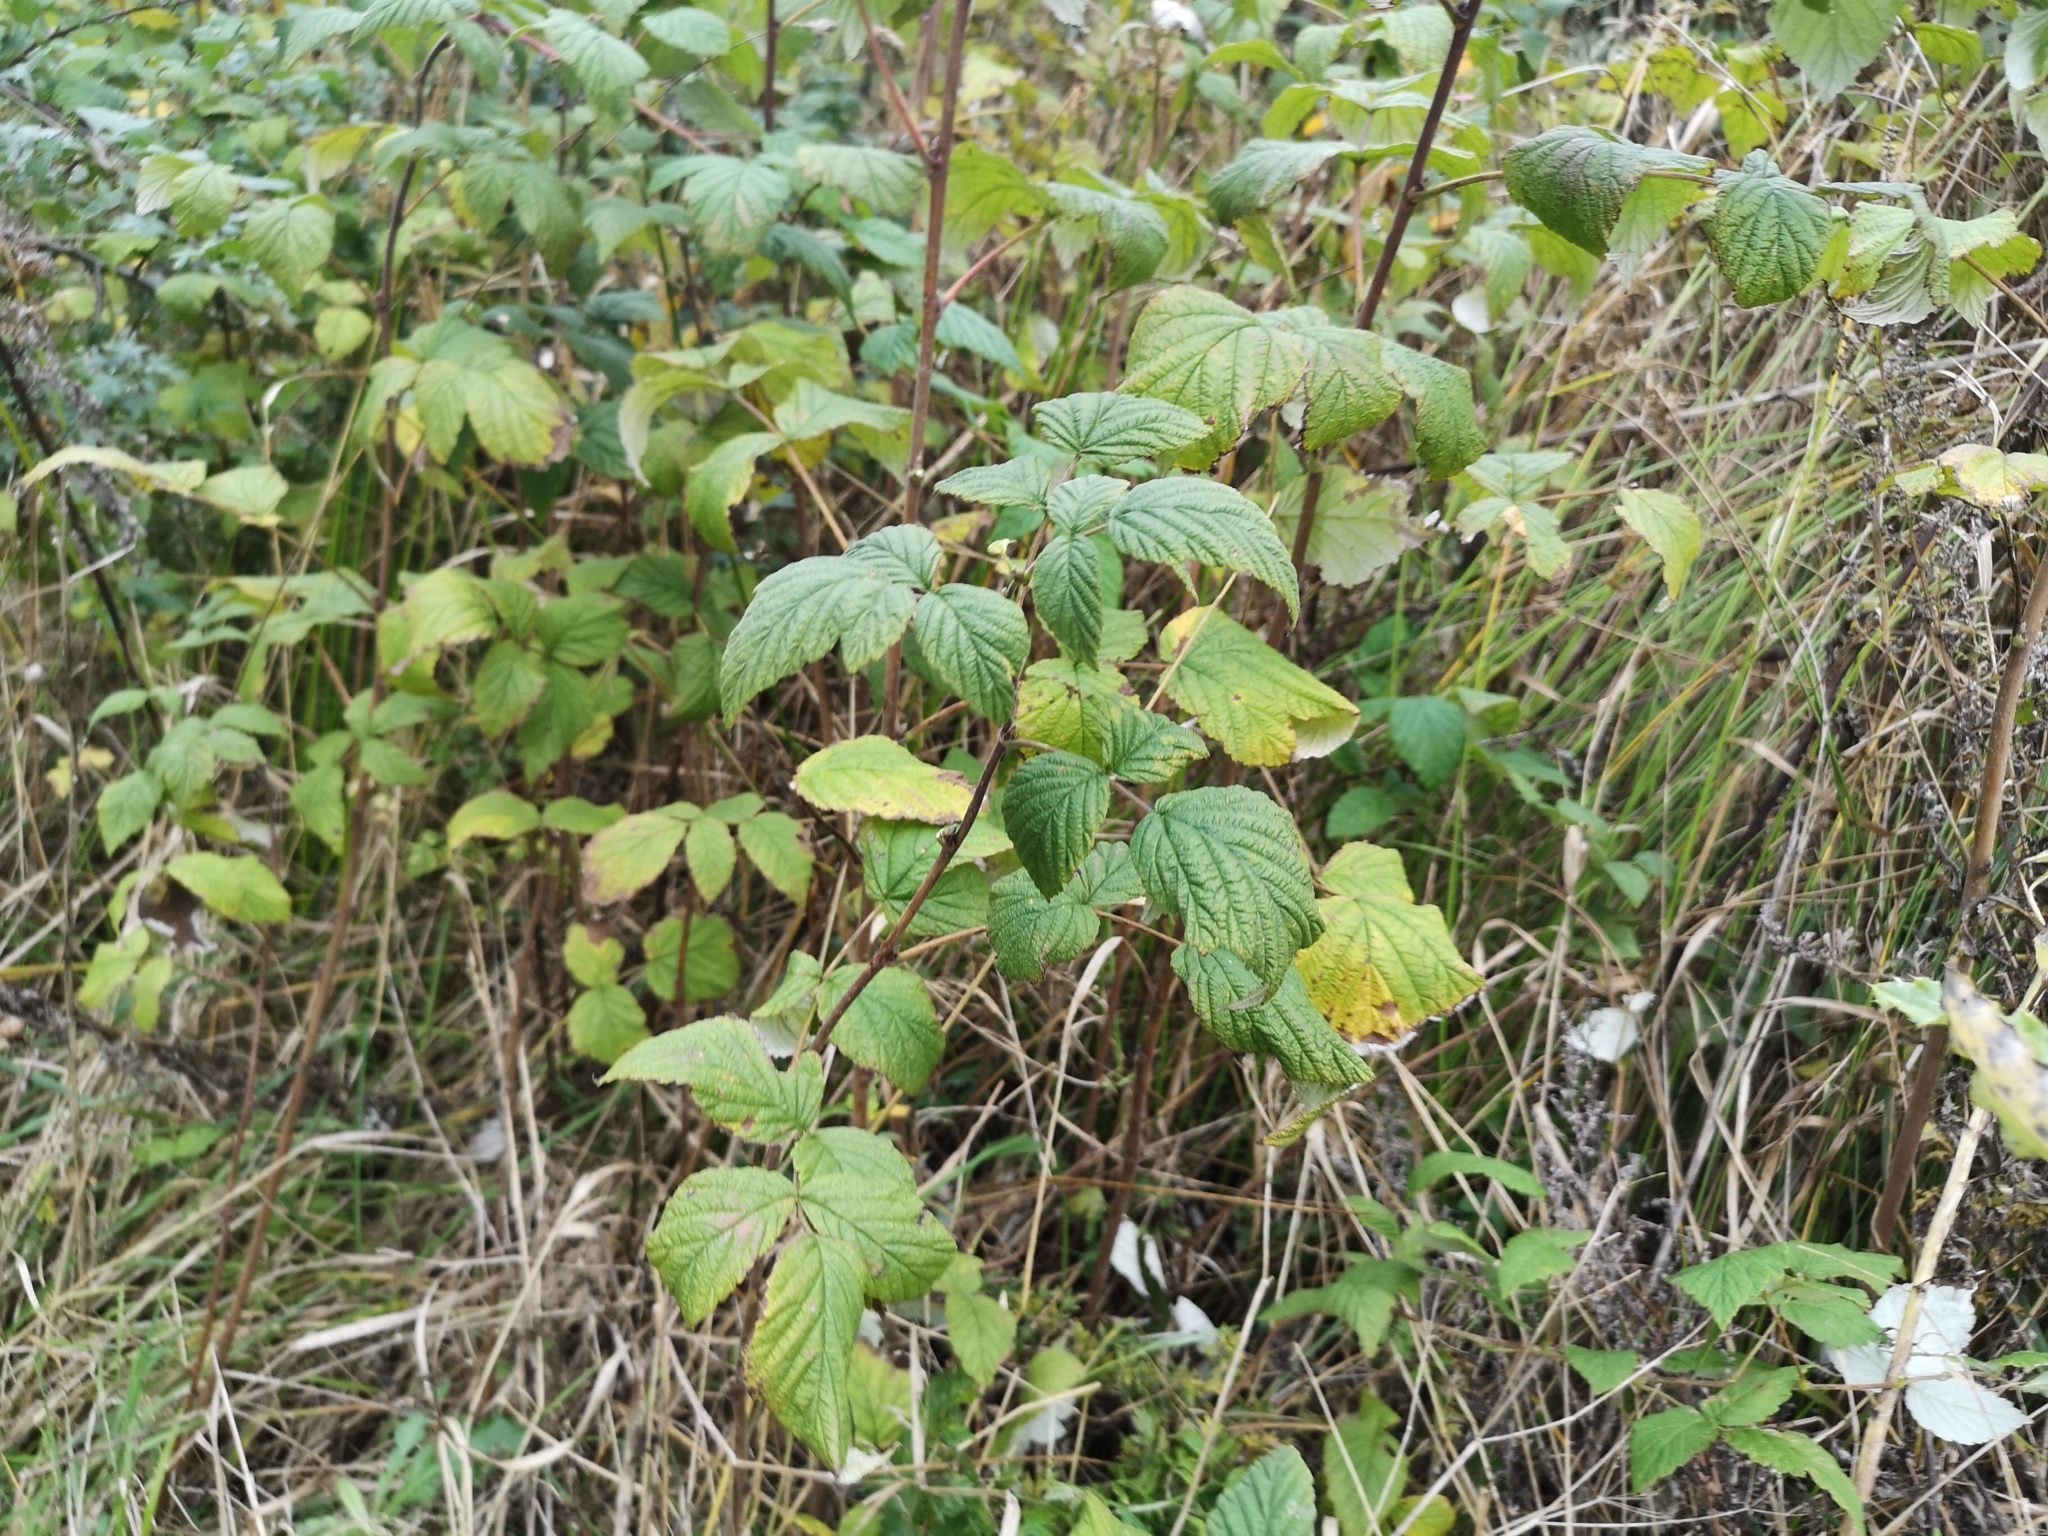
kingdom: Plantae
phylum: Tracheophyta
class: Magnoliopsida
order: Rosales
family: Rosaceae
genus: Rubus
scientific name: Rubus idaeus
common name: Raspberry
